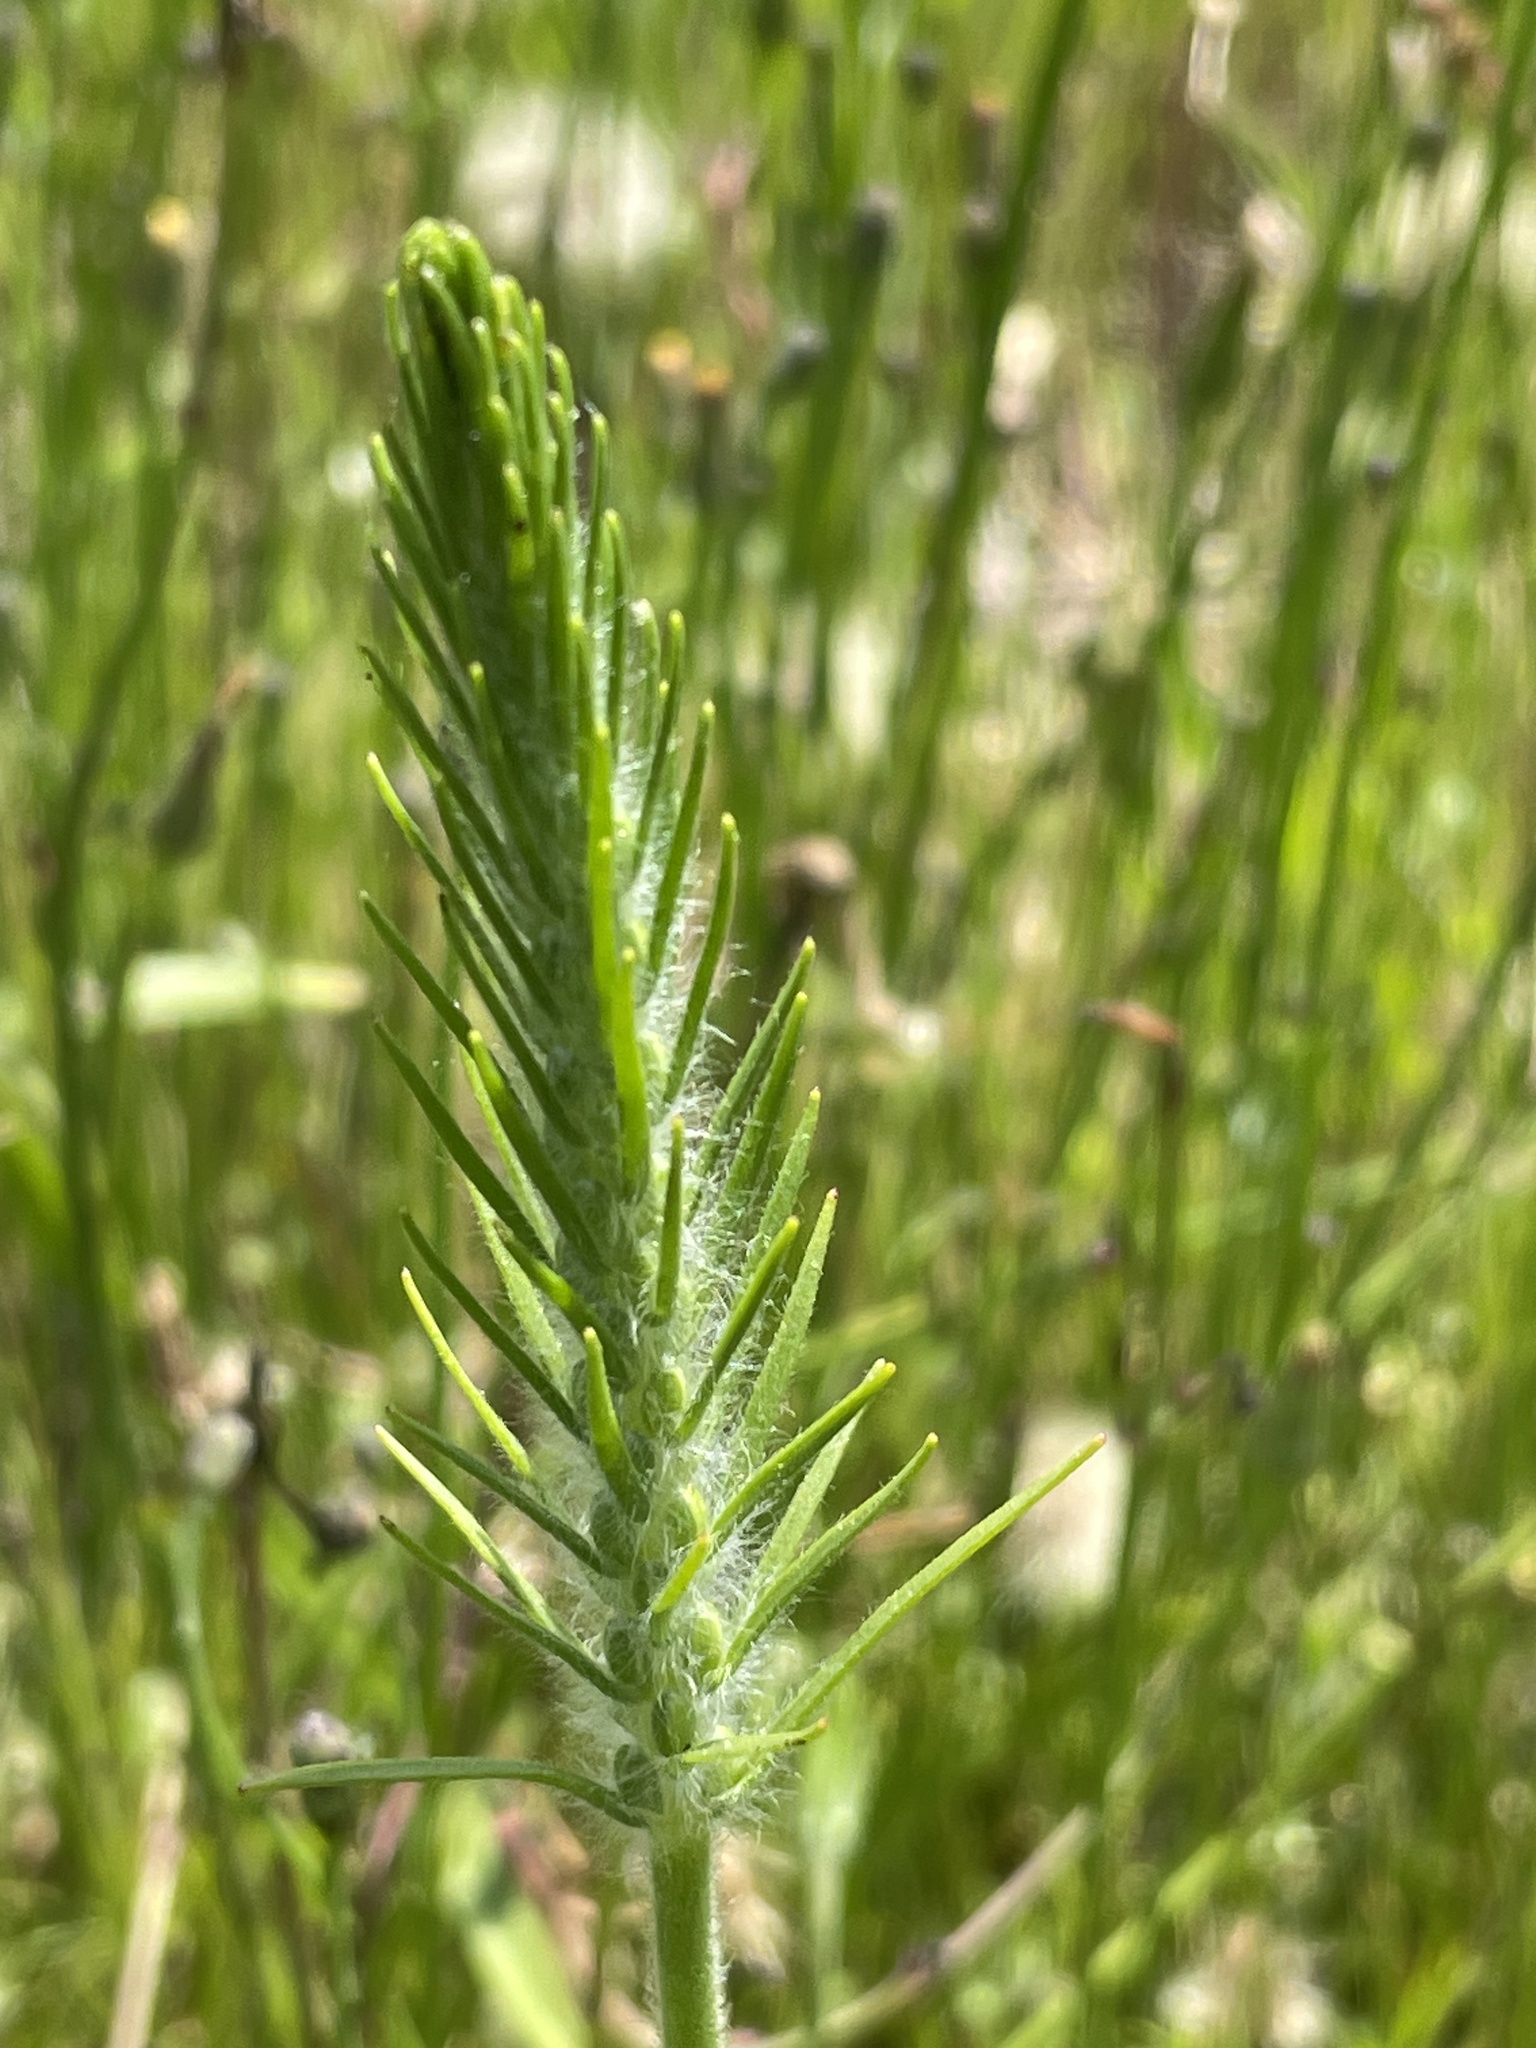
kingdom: Plantae
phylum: Tracheophyta
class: Magnoliopsida
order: Lamiales
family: Plantaginaceae
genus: Plantago
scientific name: Plantago aristata
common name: Bracted plantain
